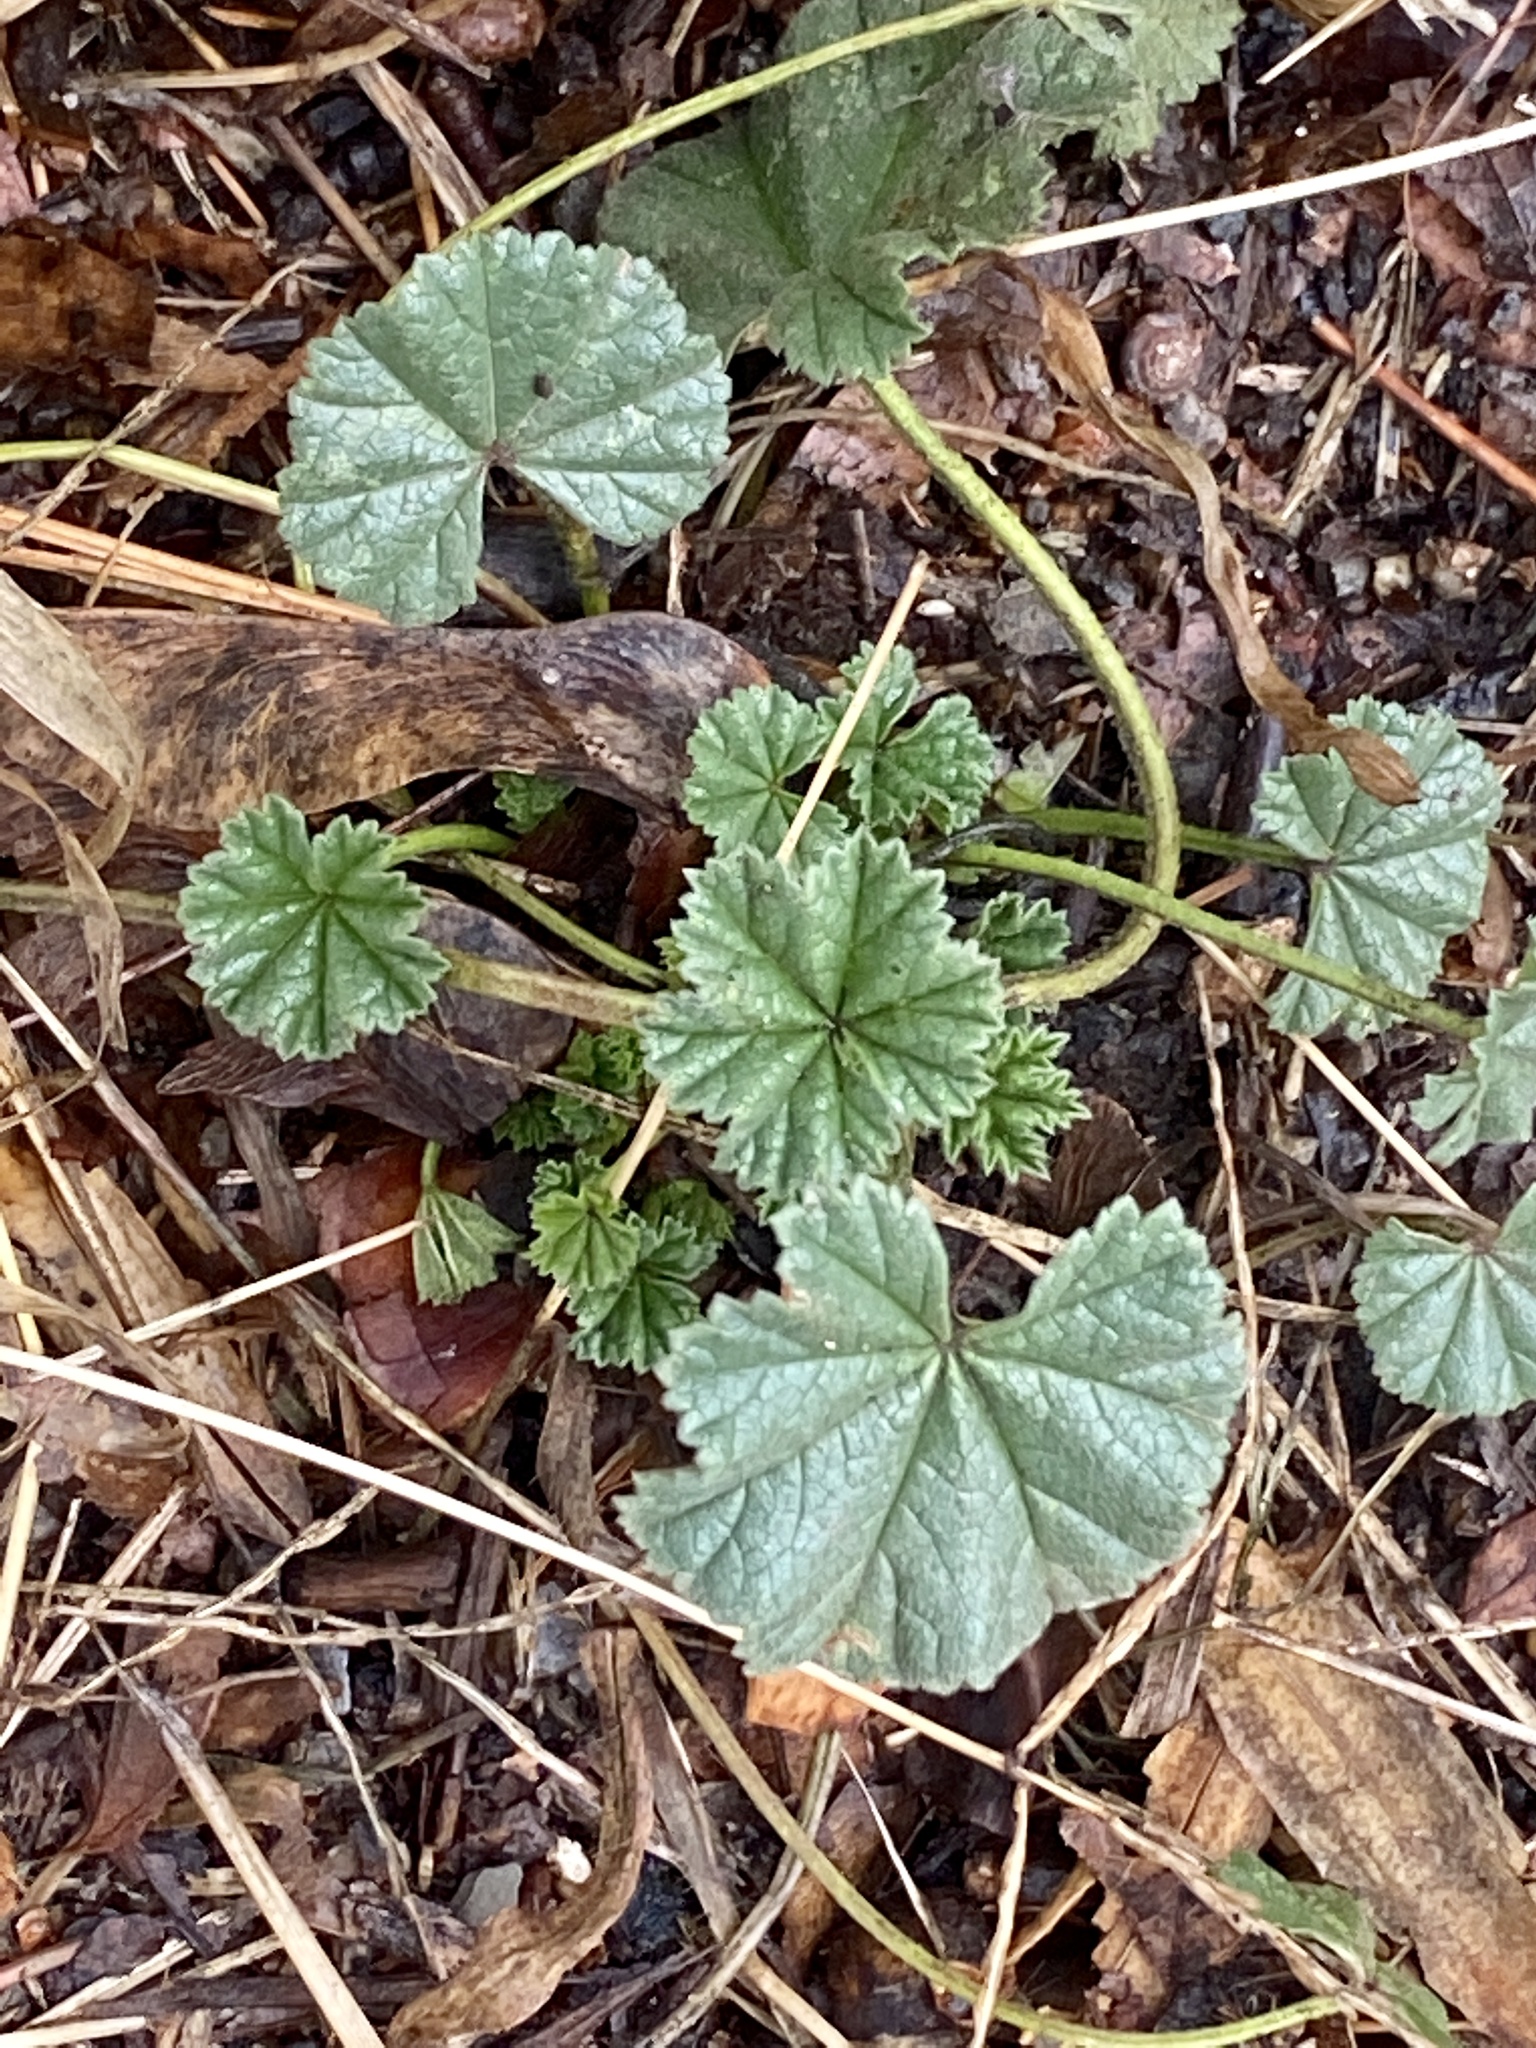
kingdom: Plantae
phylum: Tracheophyta
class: Magnoliopsida
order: Malvales
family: Malvaceae
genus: Malva
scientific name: Malva neglecta
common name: Common mallow
